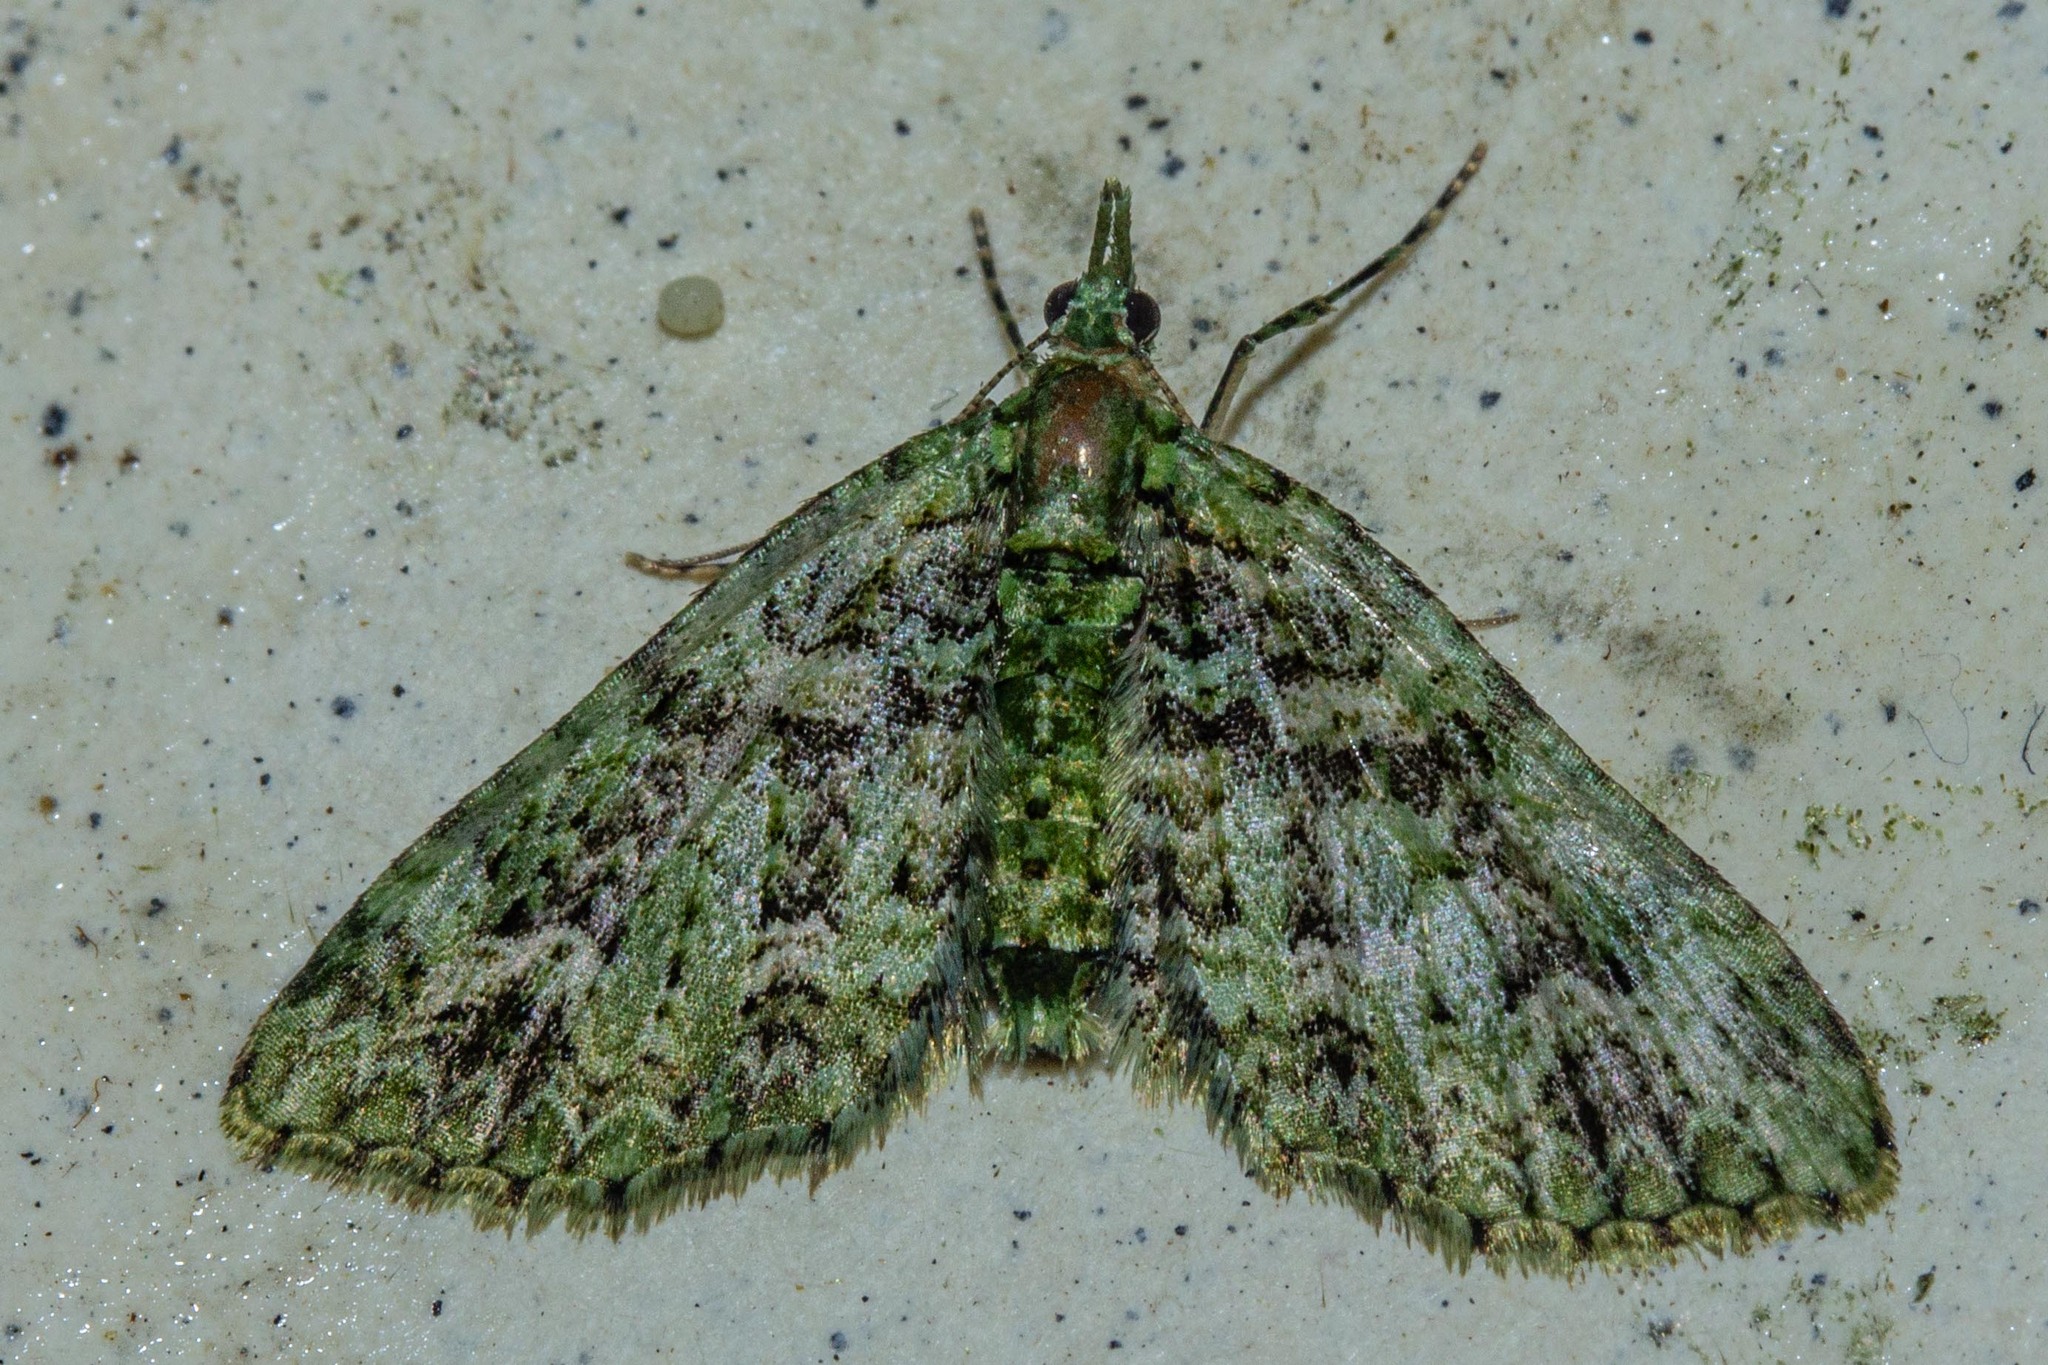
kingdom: Animalia
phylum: Arthropoda
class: Insecta
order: Lepidoptera
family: Geometridae
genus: Pasiphila
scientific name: Pasiphila muscosata
